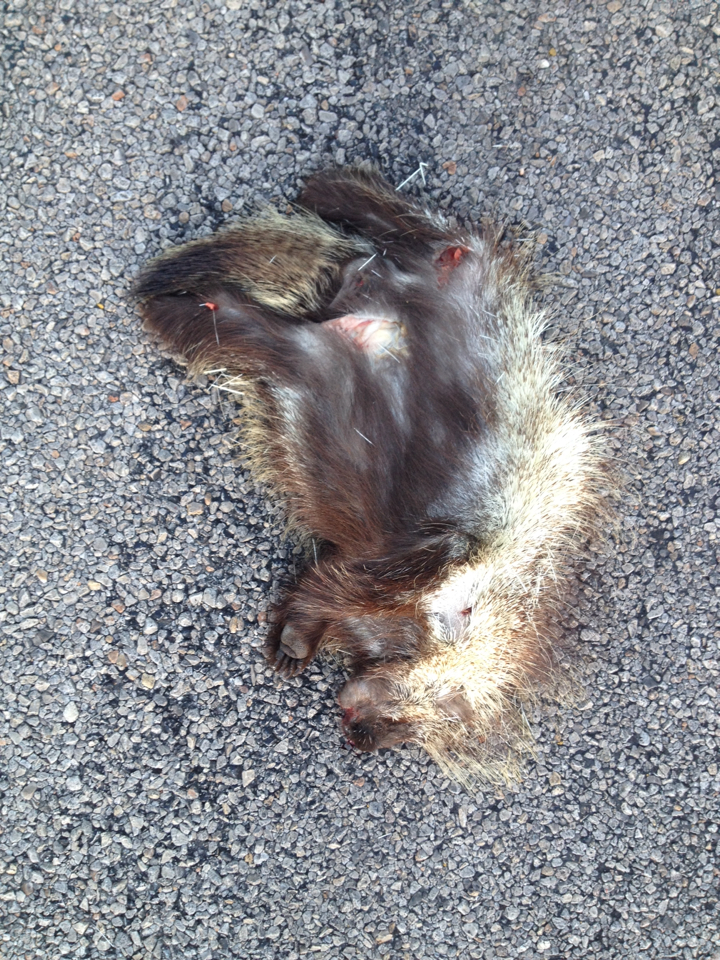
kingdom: Animalia
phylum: Chordata
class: Mammalia
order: Rodentia
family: Erethizontidae
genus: Erethizon
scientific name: Erethizon dorsatus
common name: North american porcupine
